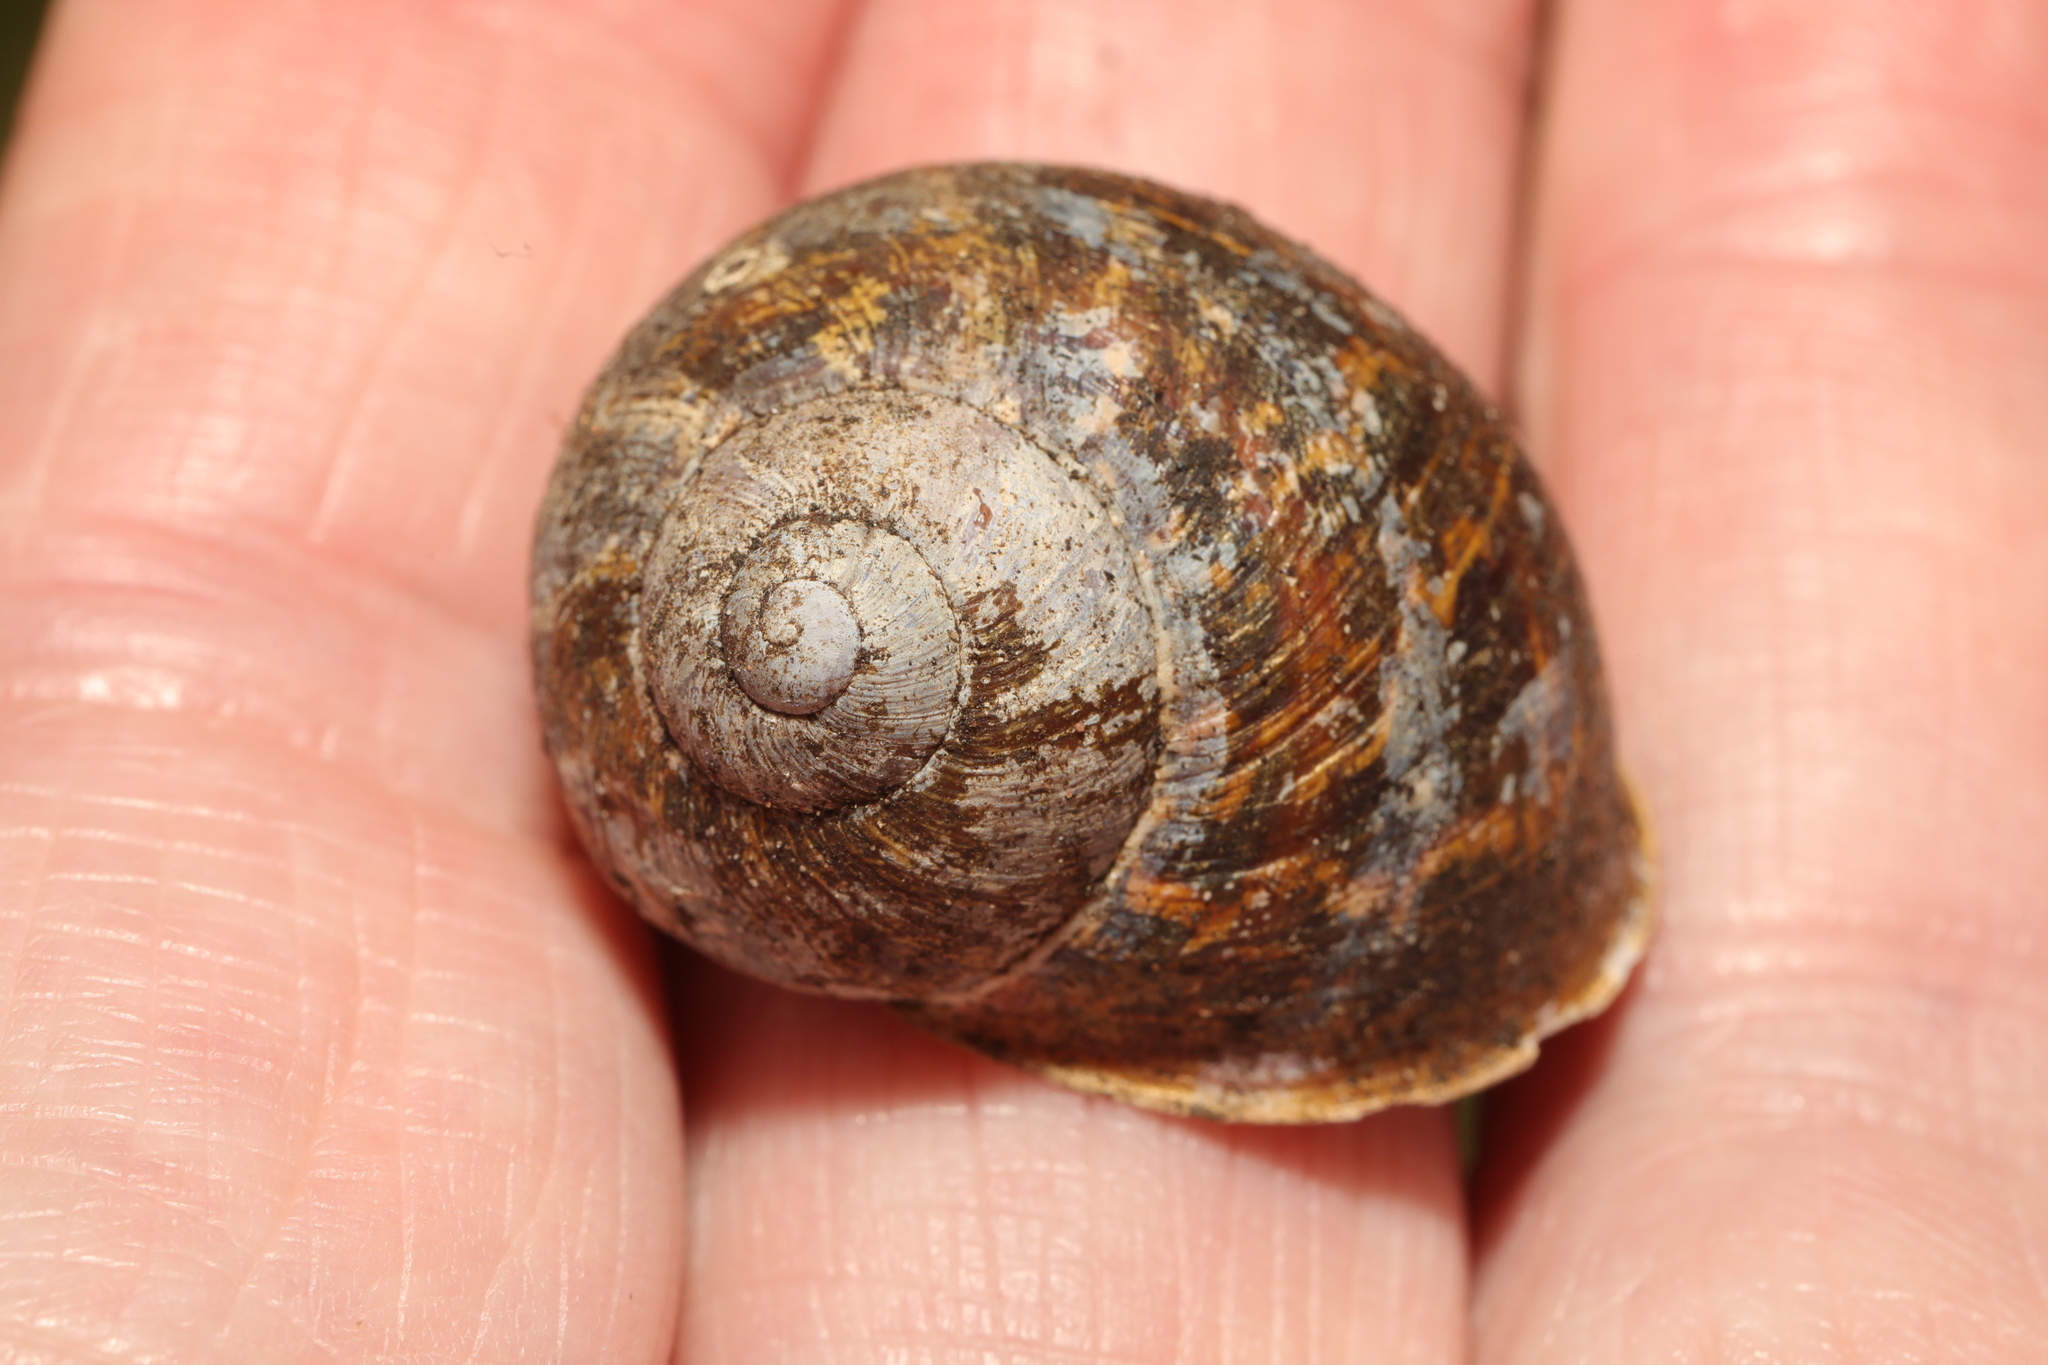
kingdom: Animalia
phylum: Mollusca
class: Gastropoda
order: Stylommatophora
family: Helicidae
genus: Cornu
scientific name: Cornu aspersum
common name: Brown garden snail
